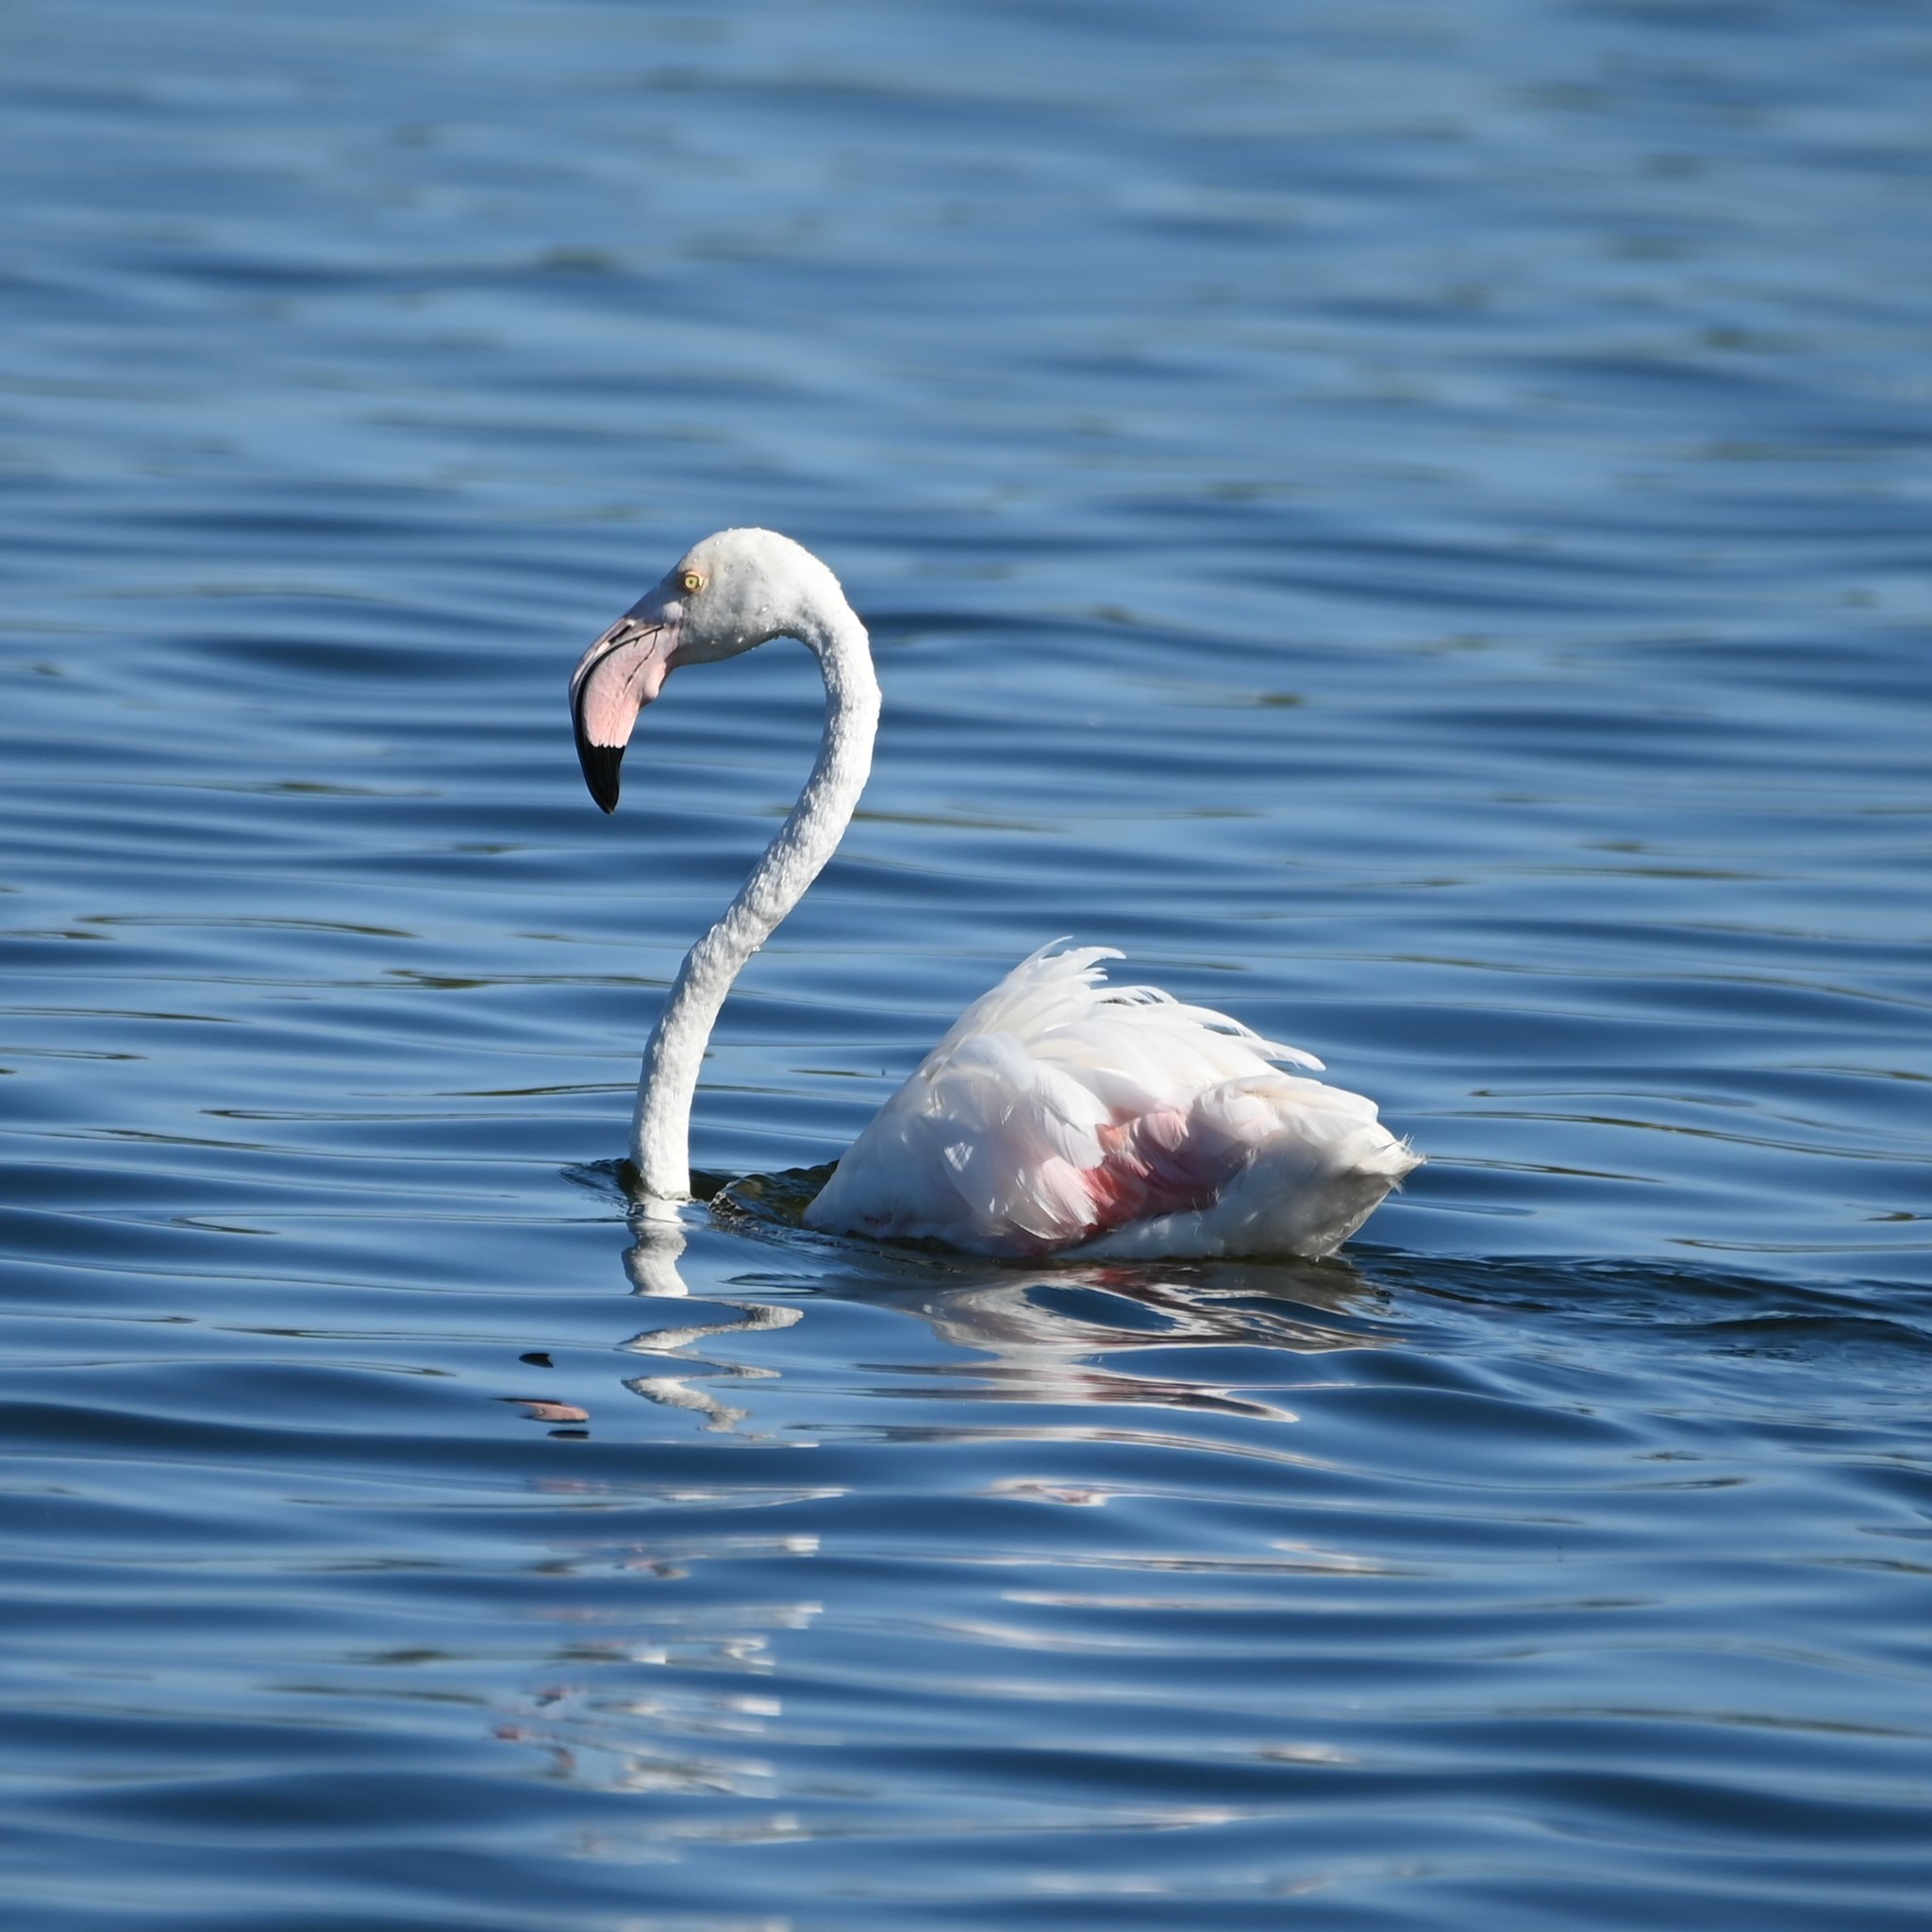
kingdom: Animalia
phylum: Chordata
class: Aves
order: Phoenicopteriformes
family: Phoenicopteridae
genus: Phoenicopterus
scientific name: Phoenicopterus roseus
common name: Greater flamingo
